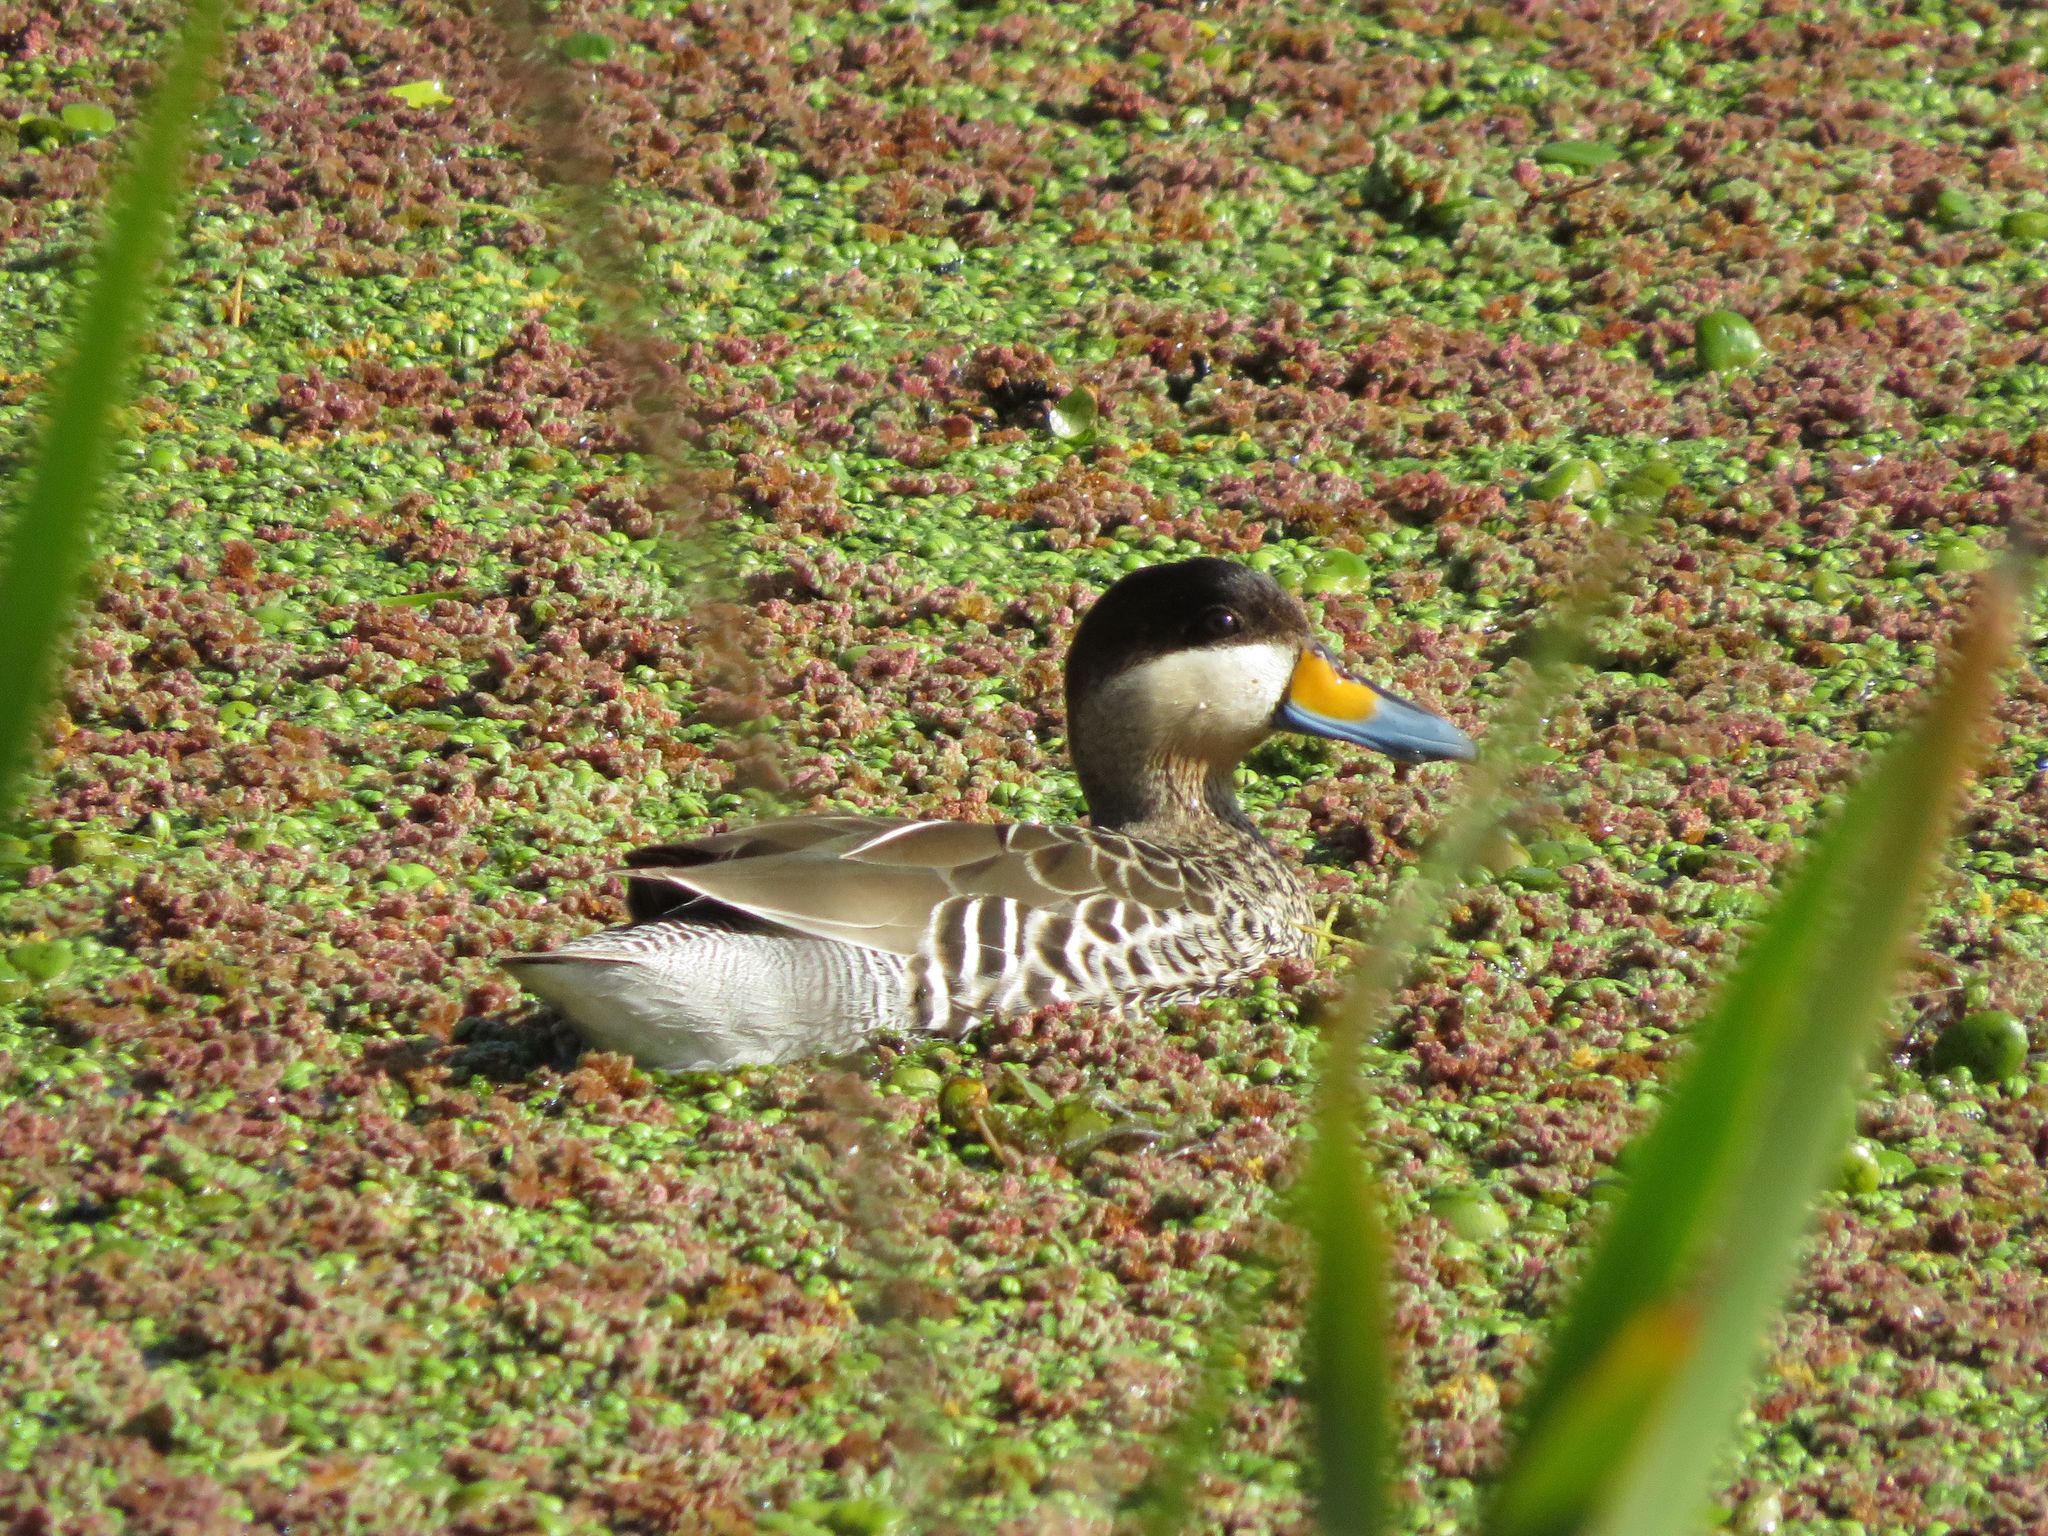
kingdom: Animalia
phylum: Chordata
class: Aves
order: Anseriformes
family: Anatidae
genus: Spatula
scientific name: Spatula versicolor
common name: Silver teal
